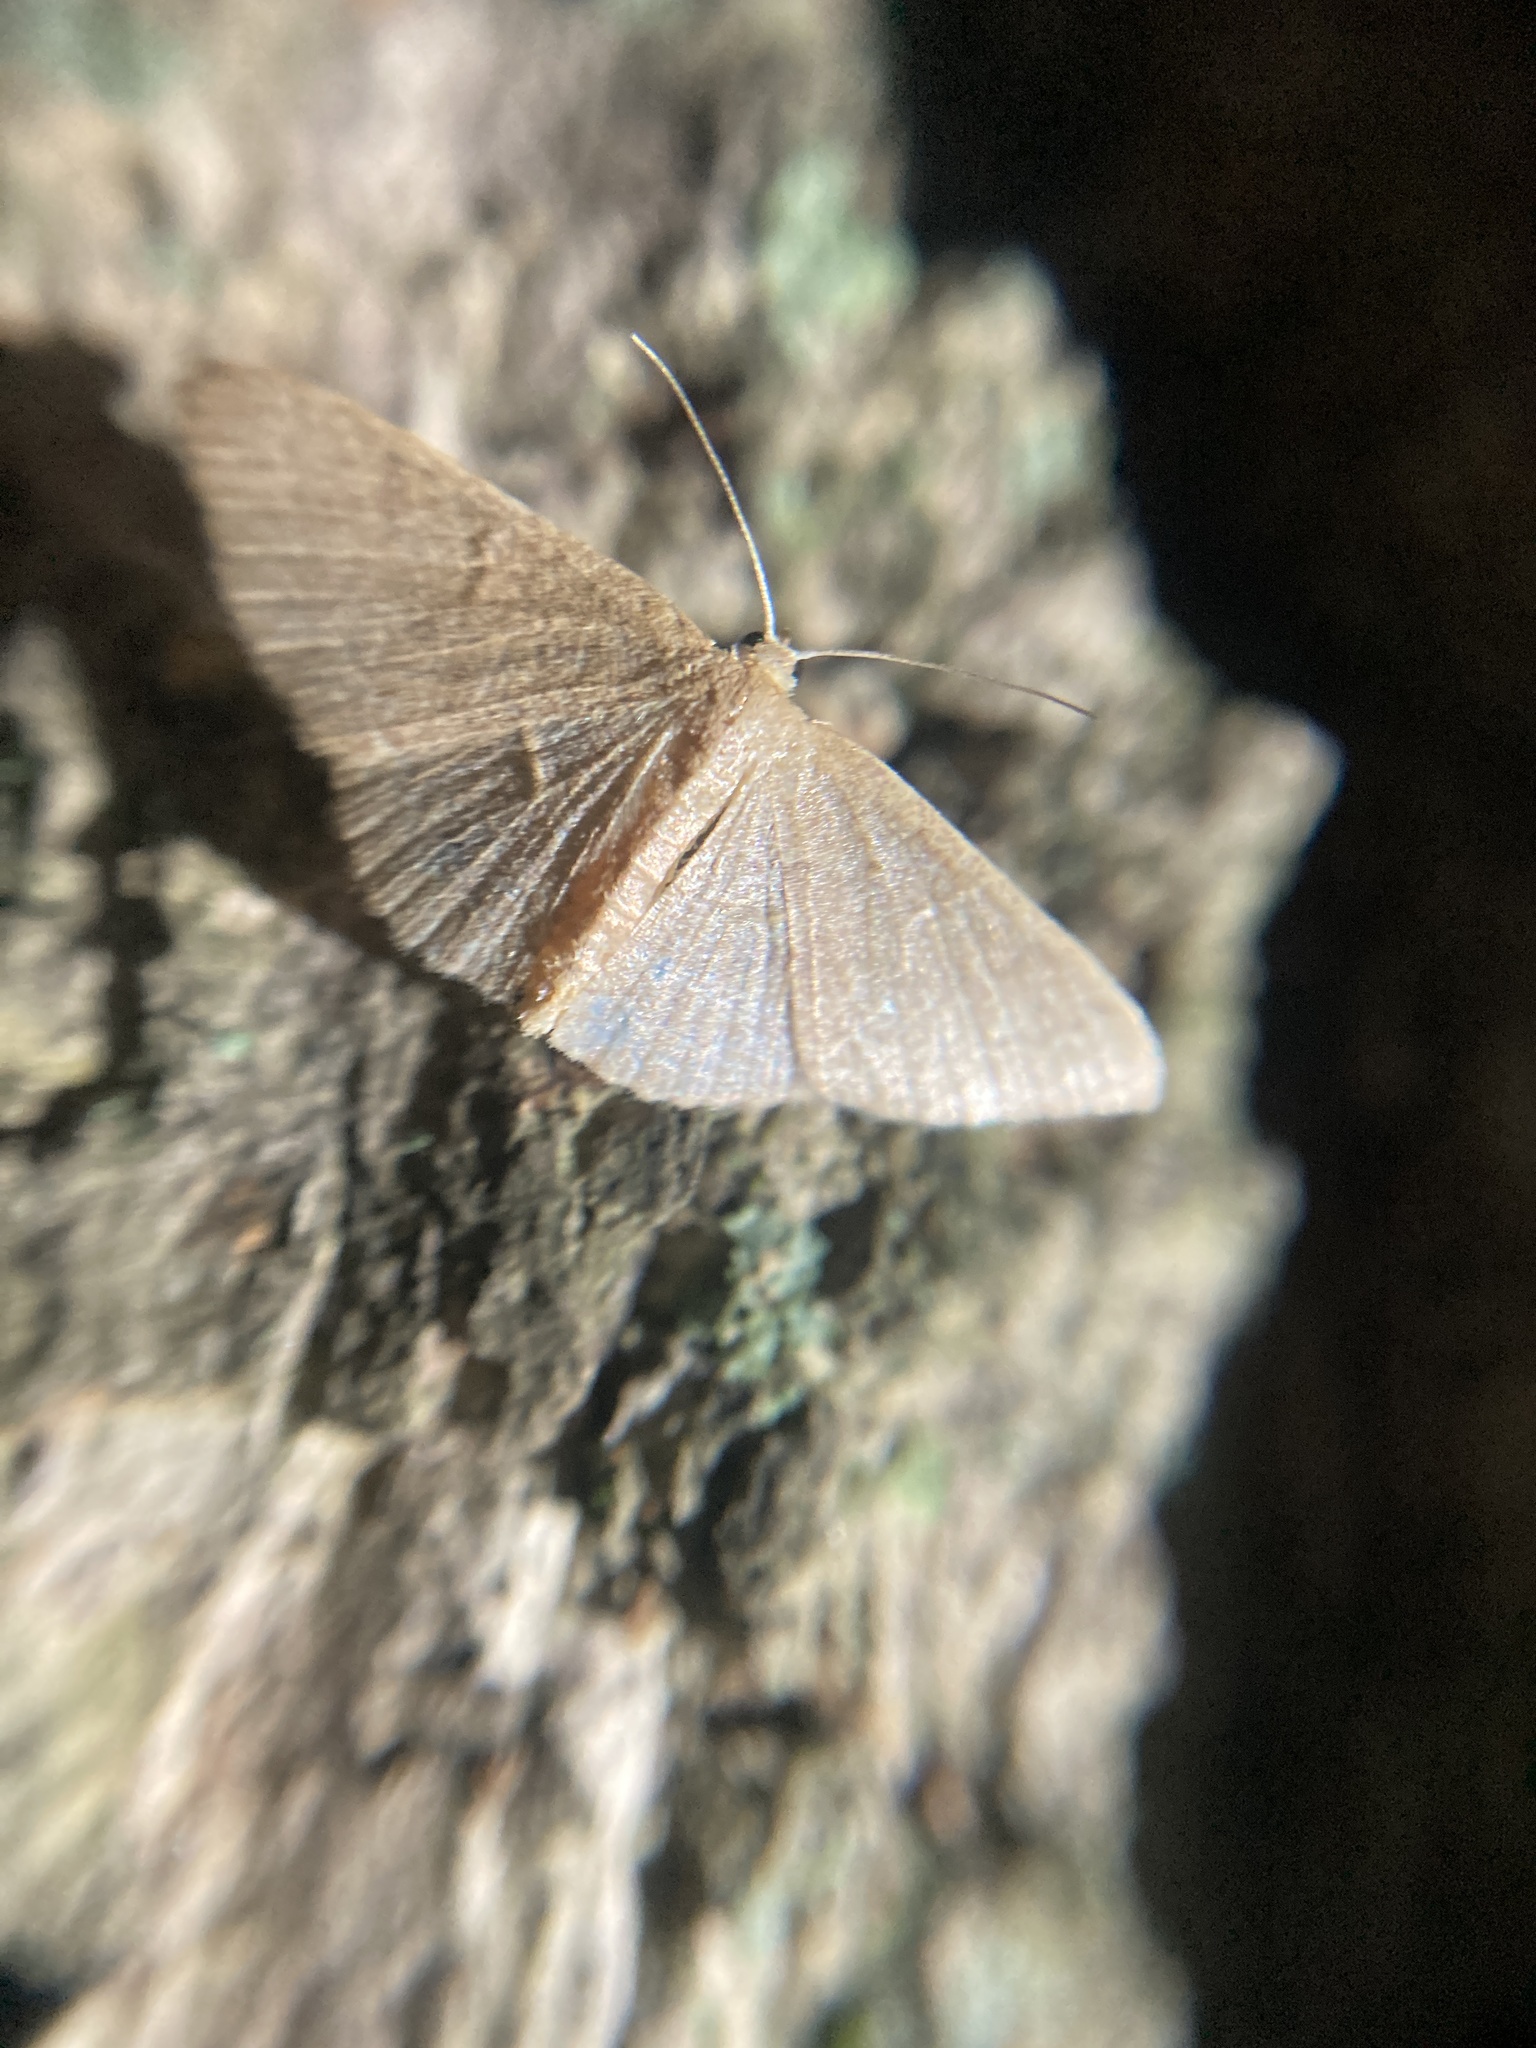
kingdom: Animalia
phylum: Arthropoda
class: Insecta
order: Lepidoptera
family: Geometridae
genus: Pleuroprucha
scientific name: Pleuroprucha insulsaria
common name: Common tan wave
